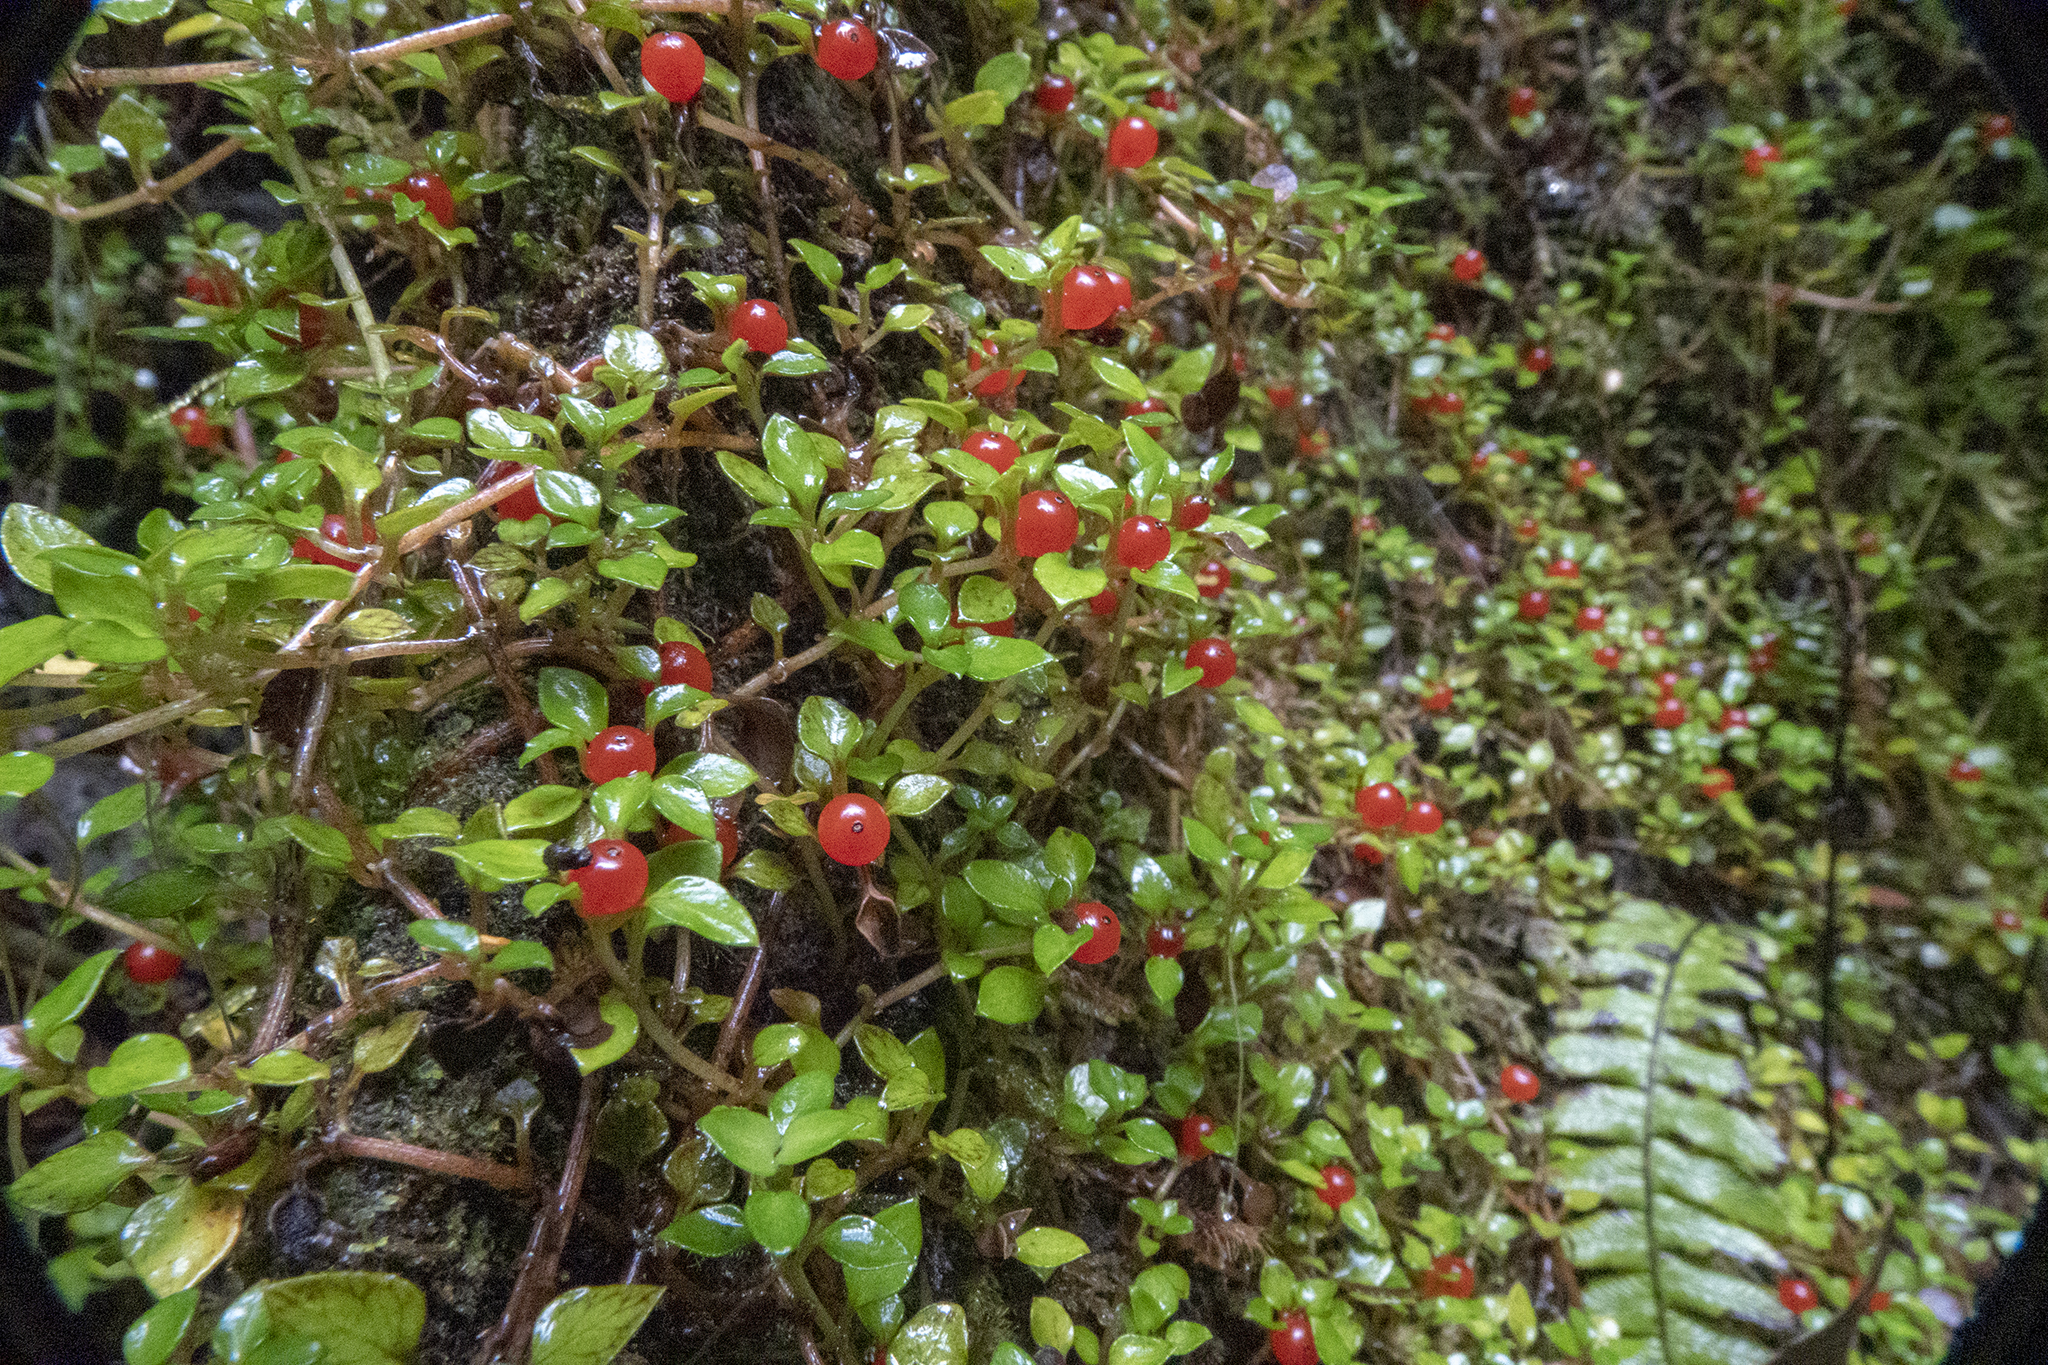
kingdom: Plantae
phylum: Tracheophyta
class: Magnoliopsida
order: Gentianales
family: Rubiaceae
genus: Nertera
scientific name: Nertera granadensis
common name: Beadplant
